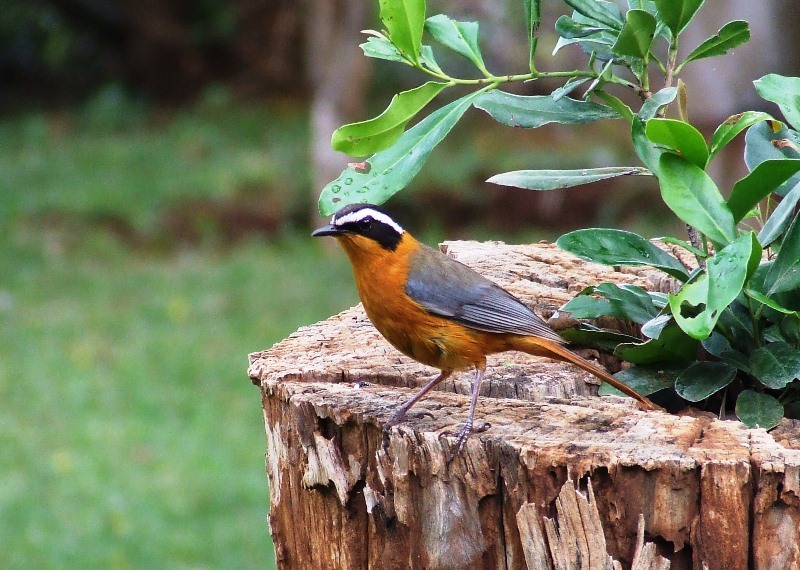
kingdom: Animalia
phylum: Chordata
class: Aves
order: Passeriformes
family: Muscicapidae
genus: Cossypha
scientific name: Cossypha heuglini
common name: White-browed robin-chat
